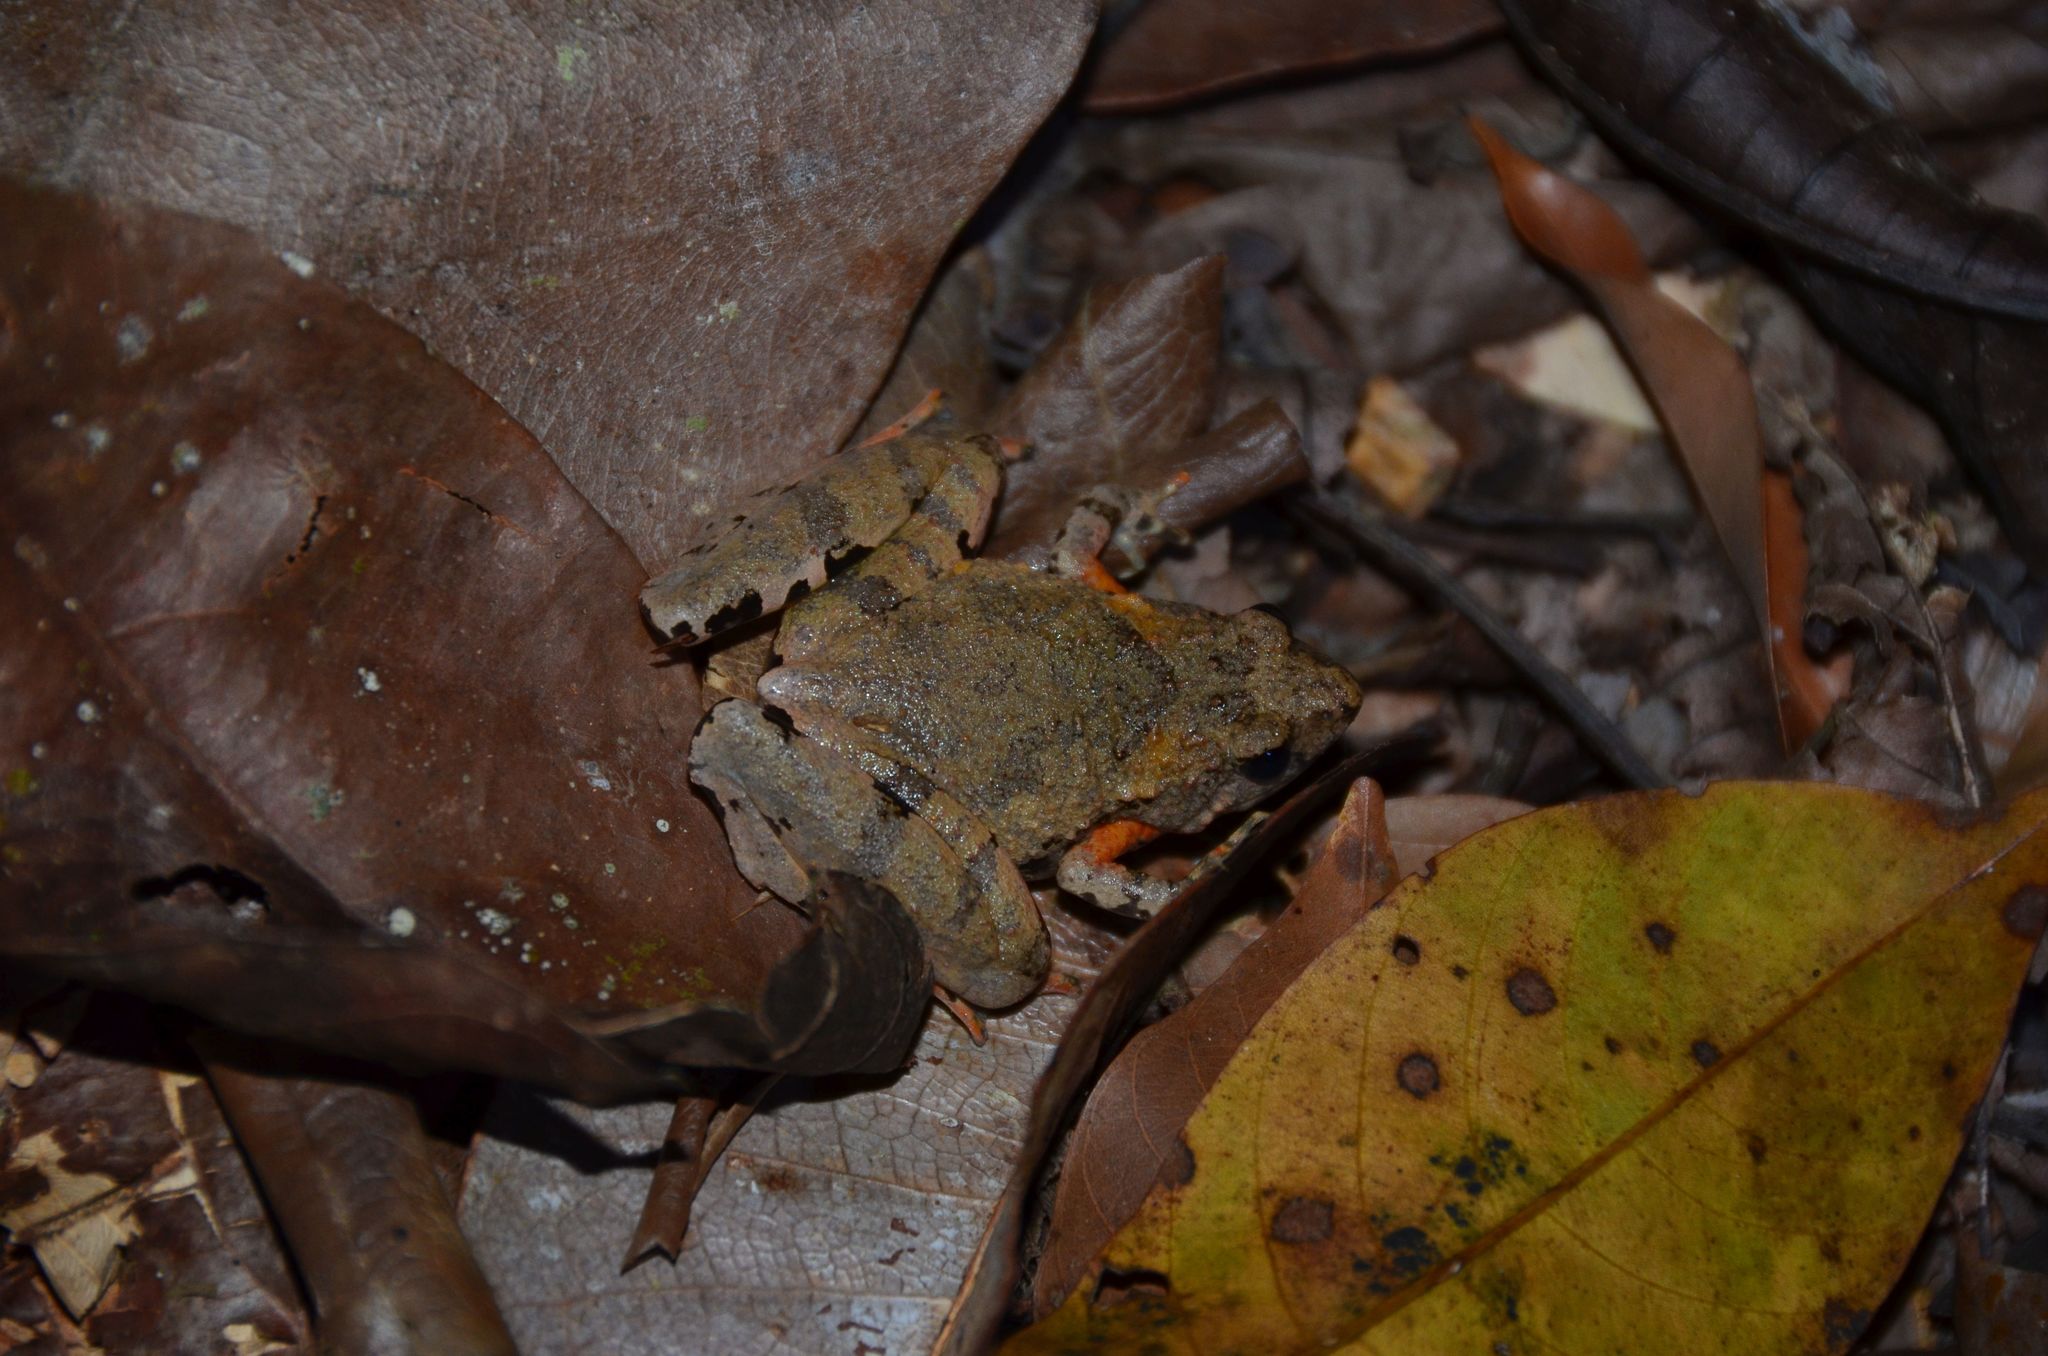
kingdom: Animalia
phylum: Chordata
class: Amphibia
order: Anura
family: Microhylidae
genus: Microhyla
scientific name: Microhyla berdmorei
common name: Berdmore’s narrow-mouthed frog,large pygmy frog
